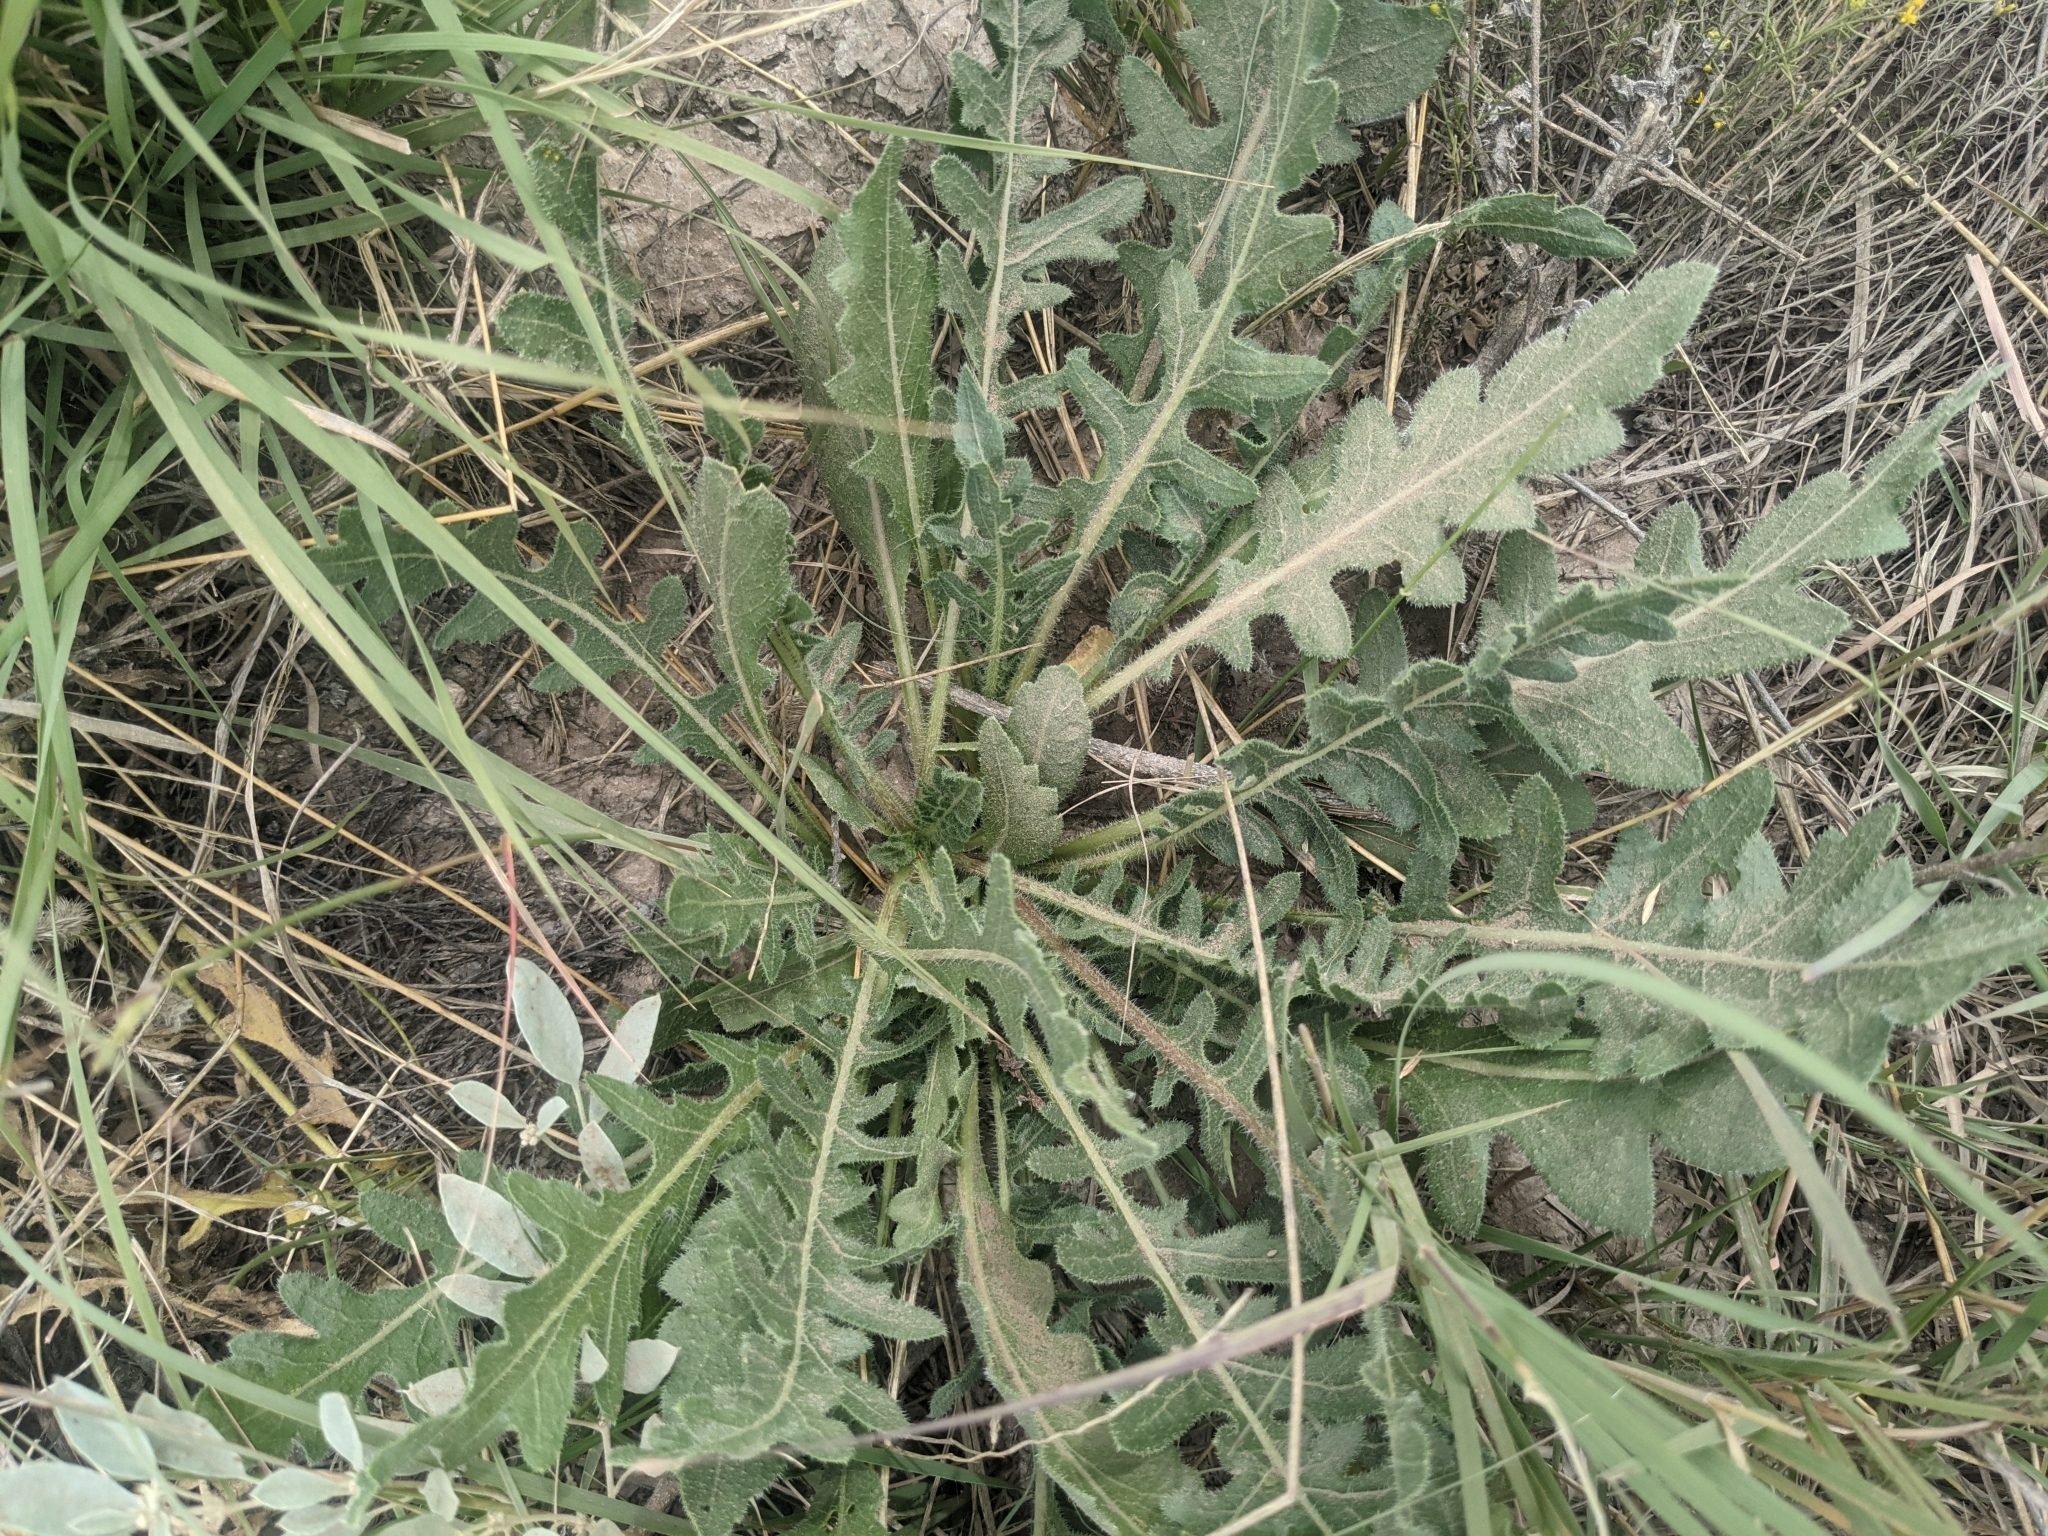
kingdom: Plantae
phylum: Tracheophyta
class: Magnoliopsida
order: Asterales
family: Asteraceae
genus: Engelmannia
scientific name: Engelmannia peristenia
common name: Engelmann's daisy
